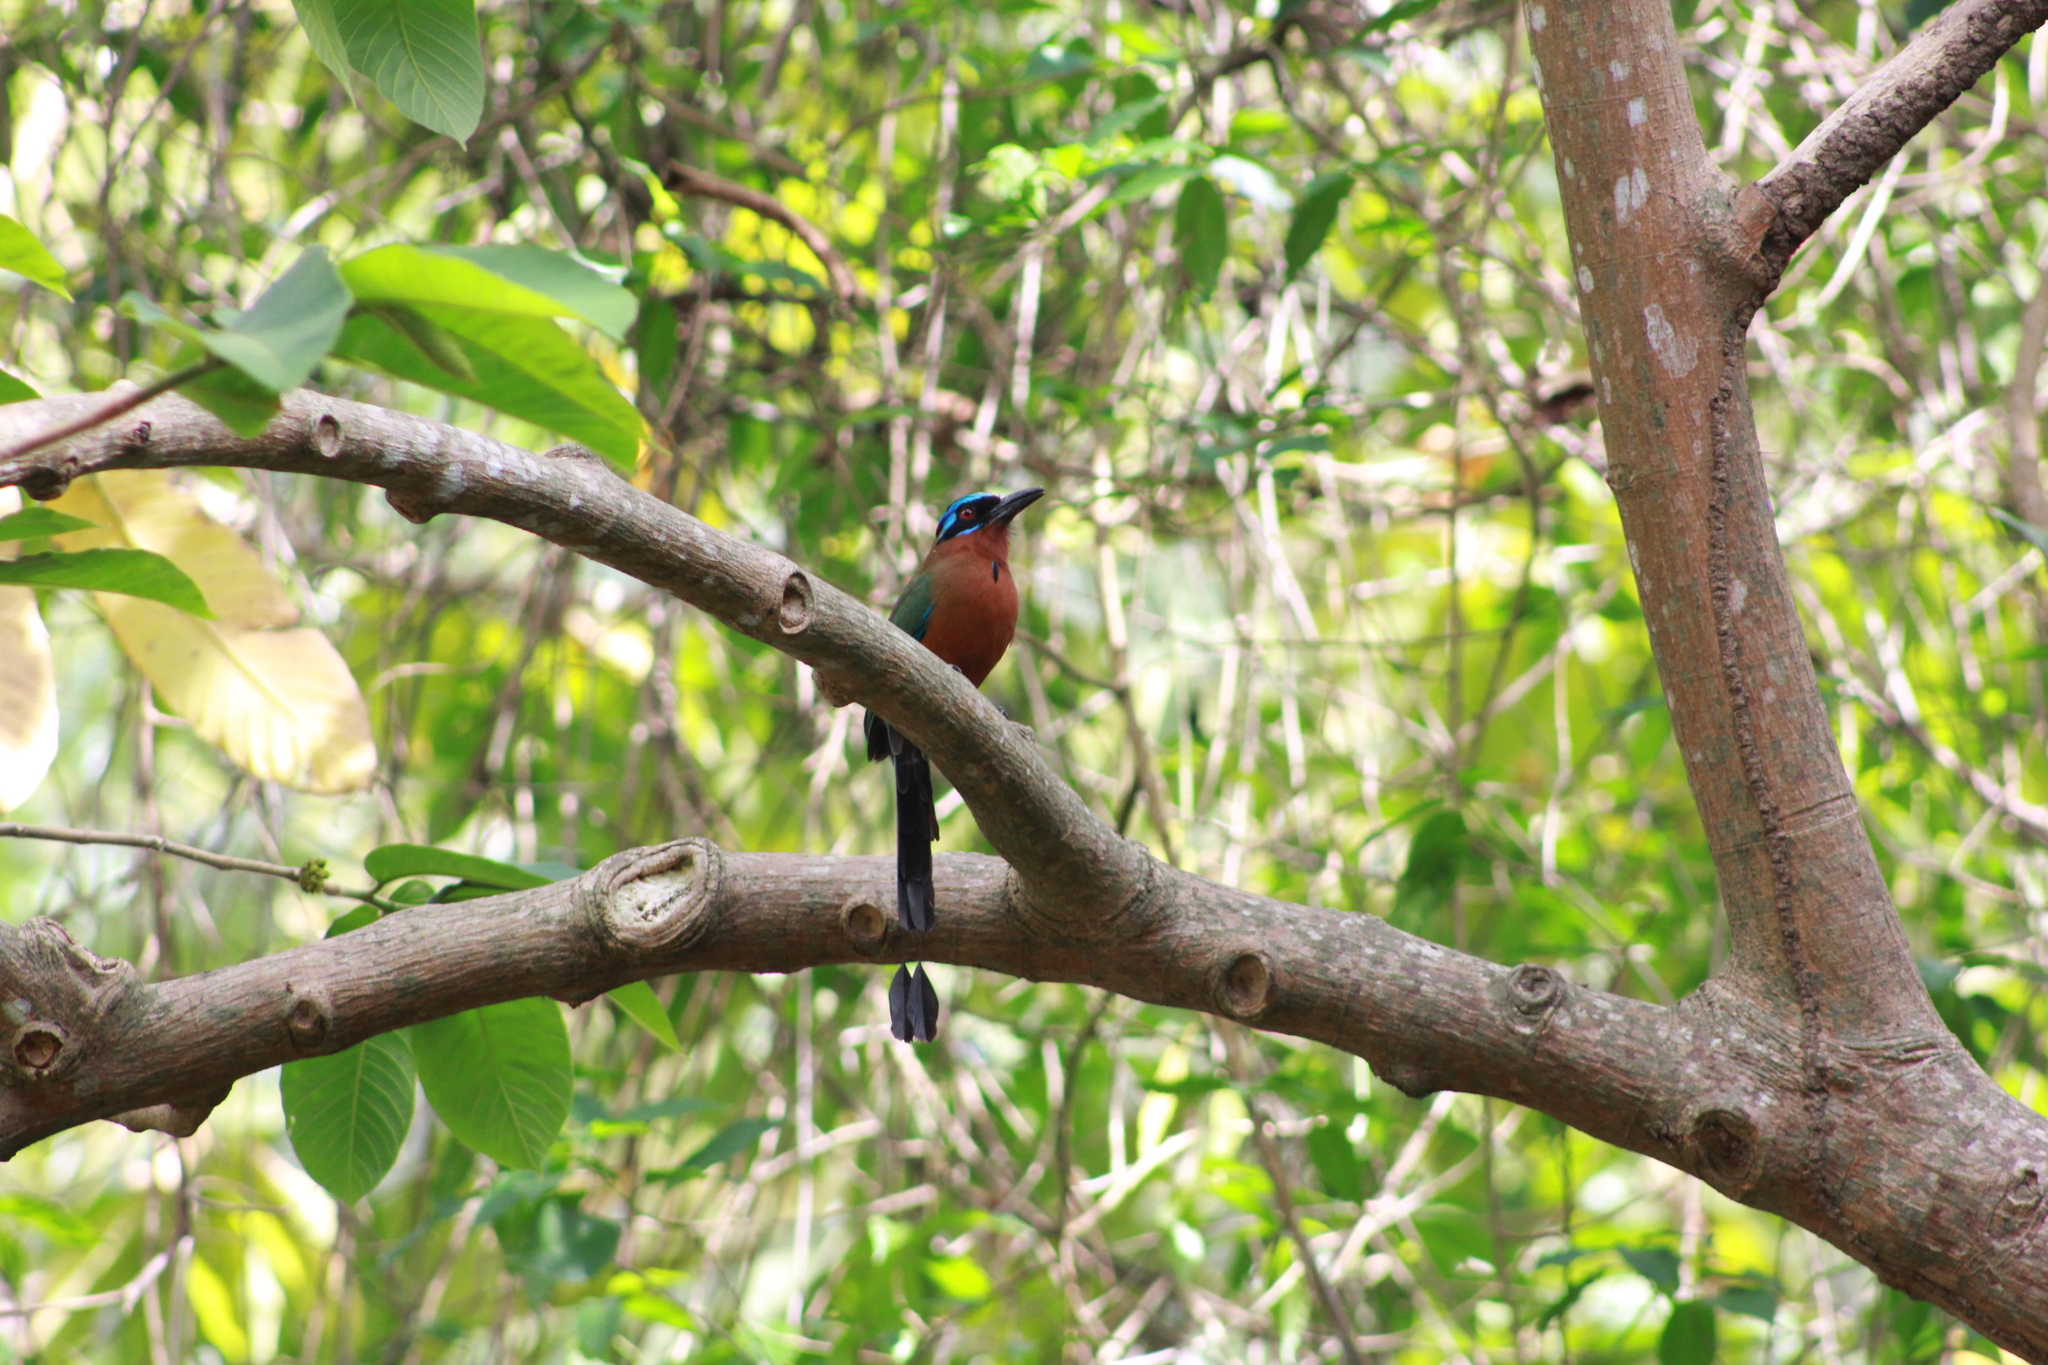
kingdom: Animalia
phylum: Chordata
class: Aves
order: Coraciiformes
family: Momotidae
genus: Momotus
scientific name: Momotus bahamensis
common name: Trinidad motmot
